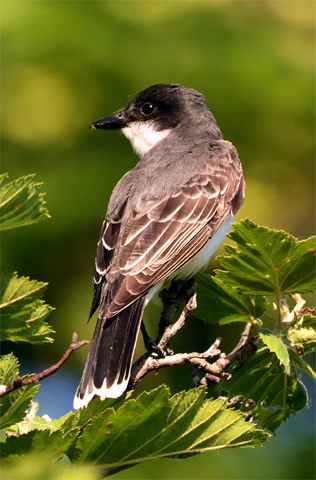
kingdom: Animalia
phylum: Chordata
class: Aves
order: Passeriformes
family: Tyrannidae
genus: Tyrannus
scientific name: Tyrannus tyrannus
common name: Eastern kingbird
